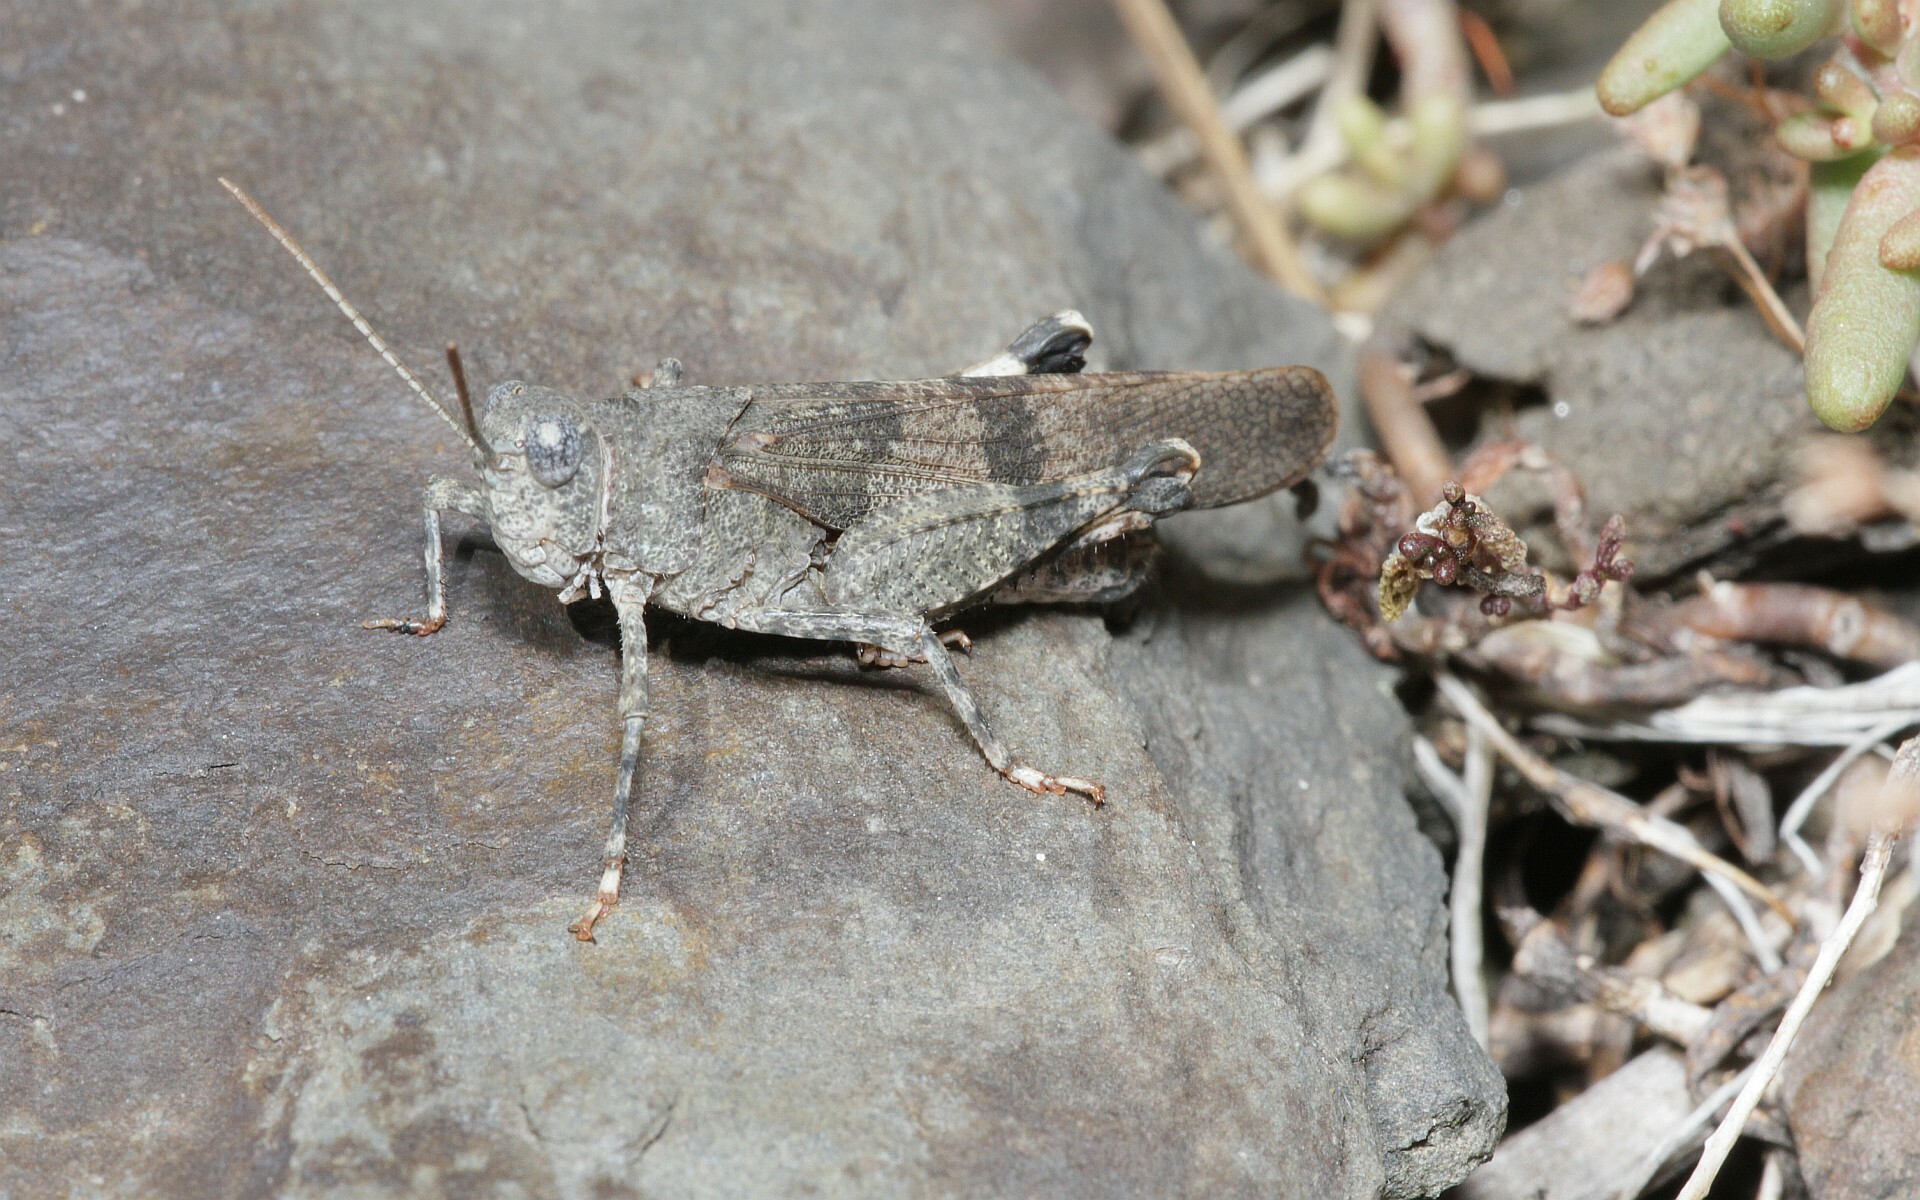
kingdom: Animalia
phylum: Arthropoda
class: Insecta
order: Orthoptera
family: Acrididae
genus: Oedipoda
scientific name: Oedipoda germanica
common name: Red band-winged grasshopper
